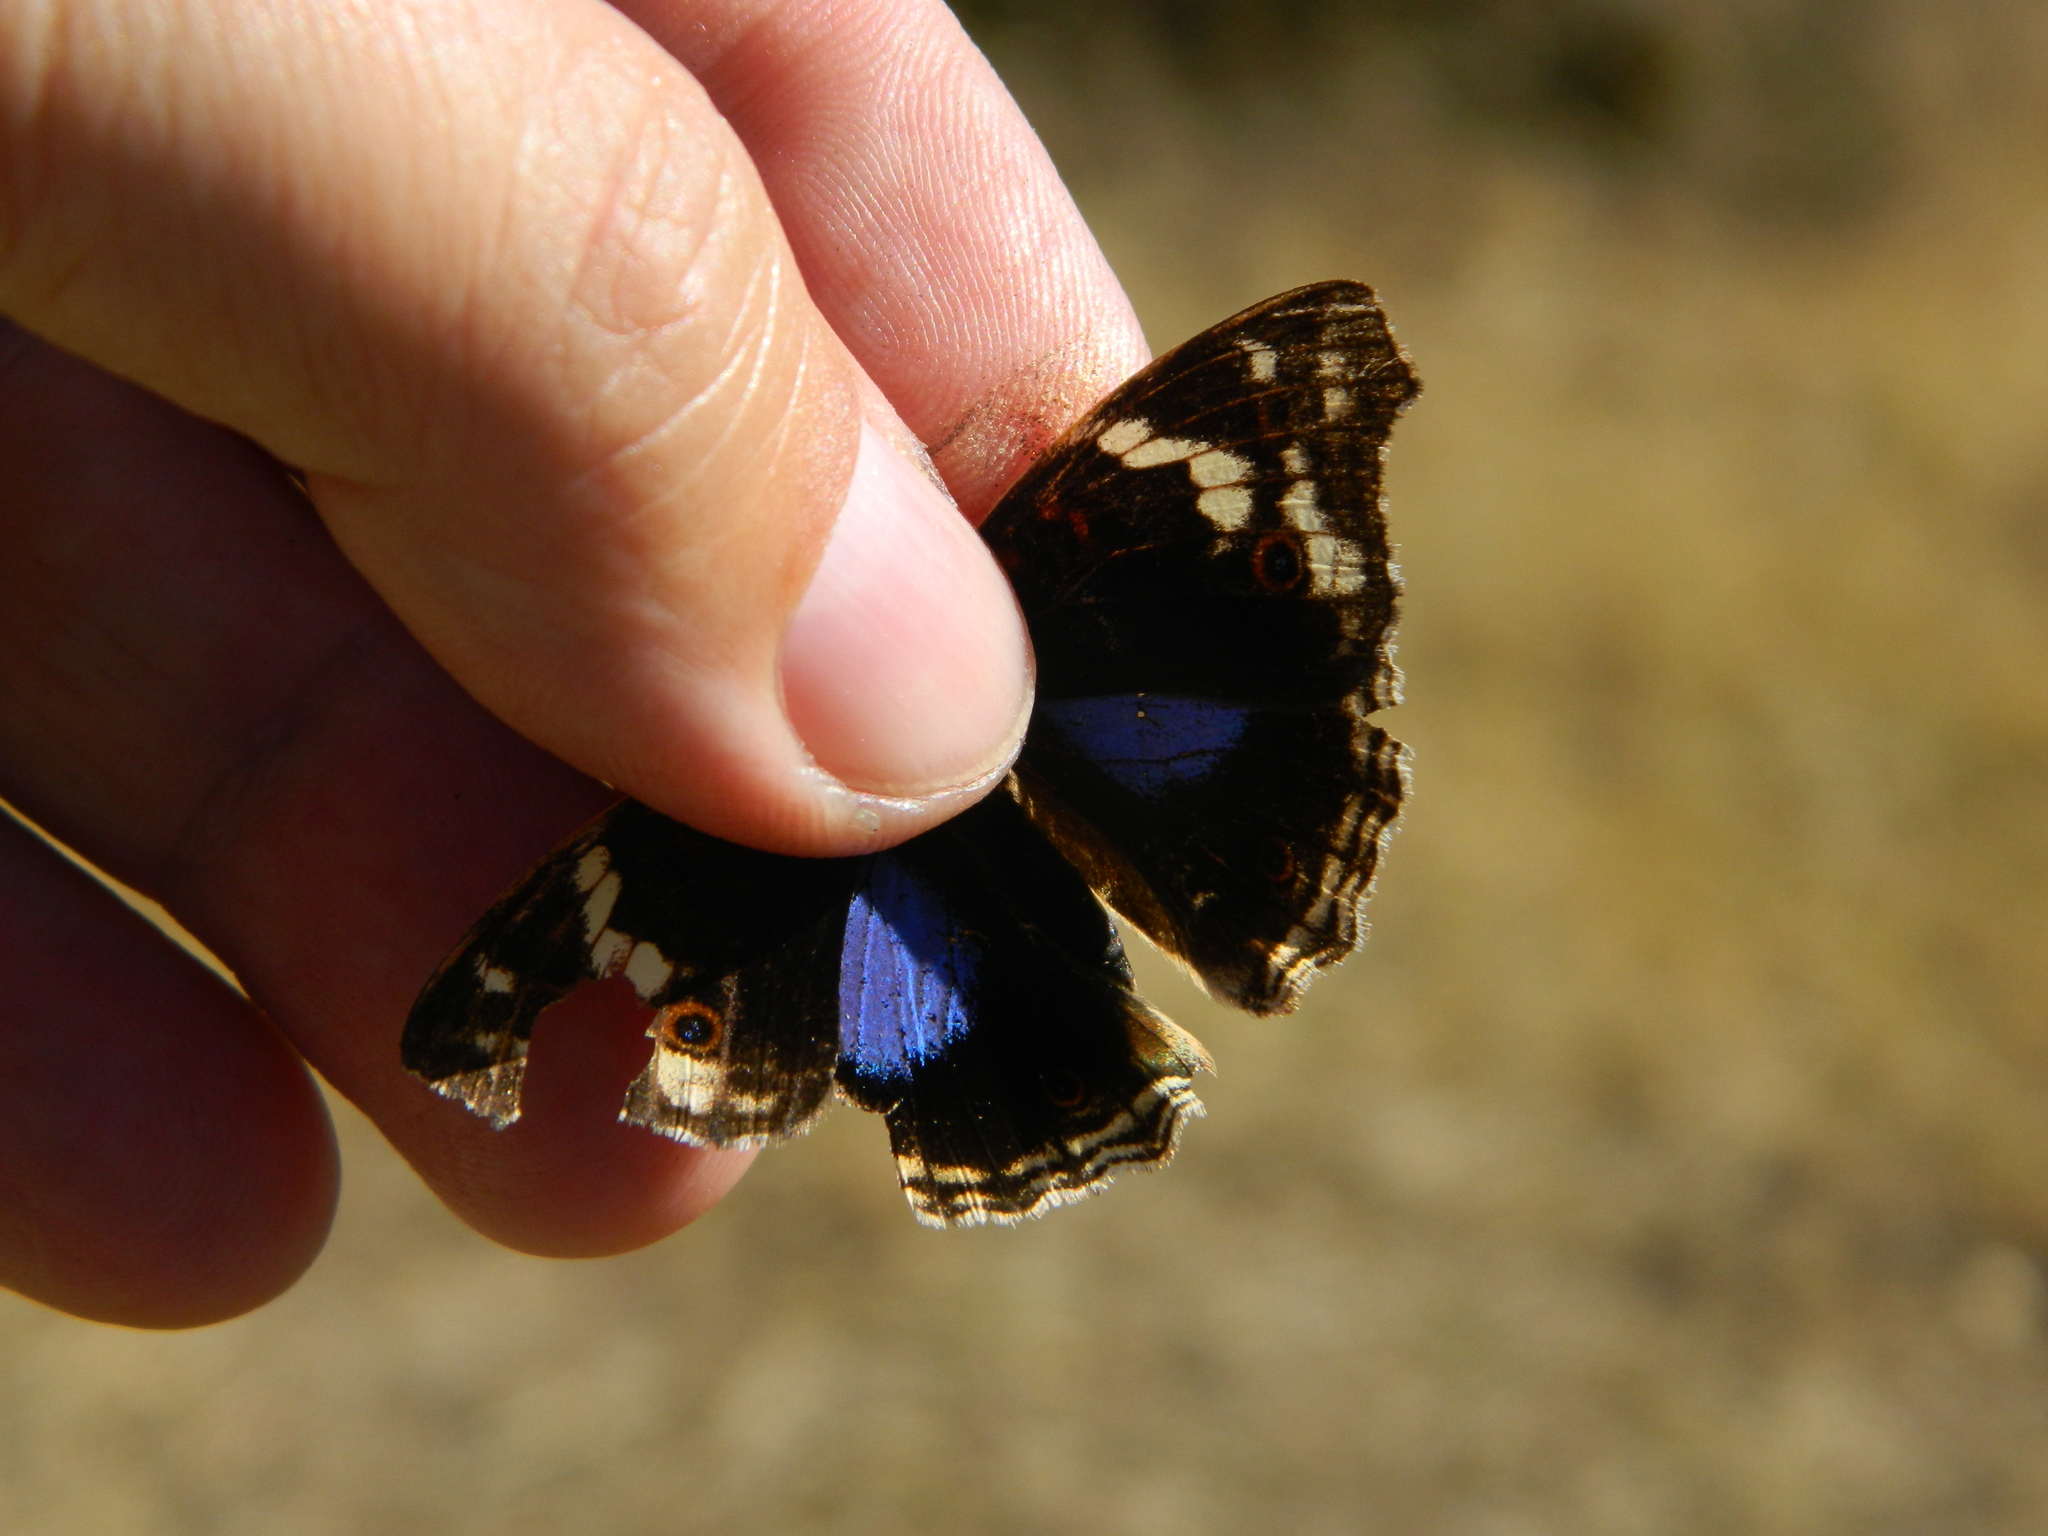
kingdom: Animalia
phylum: Arthropoda
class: Insecta
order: Lepidoptera
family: Nymphalidae
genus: Junonia
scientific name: Junonia oenone
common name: Dark blue pansy
